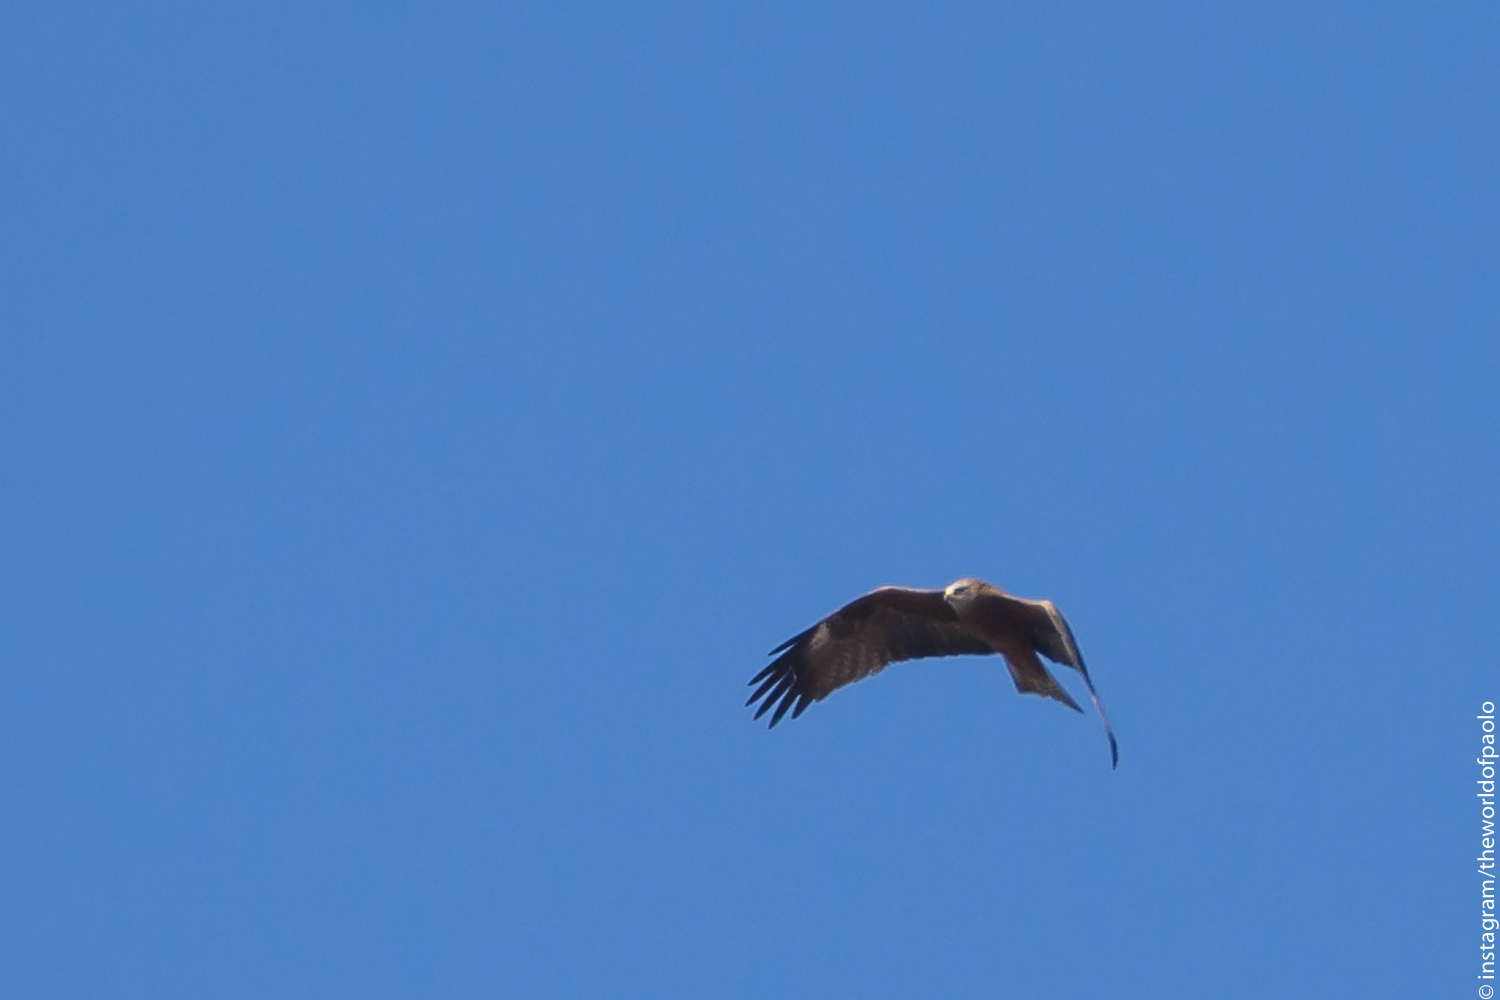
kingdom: Animalia
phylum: Chordata
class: Aves
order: Accipitriformes
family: Accipitridae
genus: Milvus
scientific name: Milvus migrans
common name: Black kite
